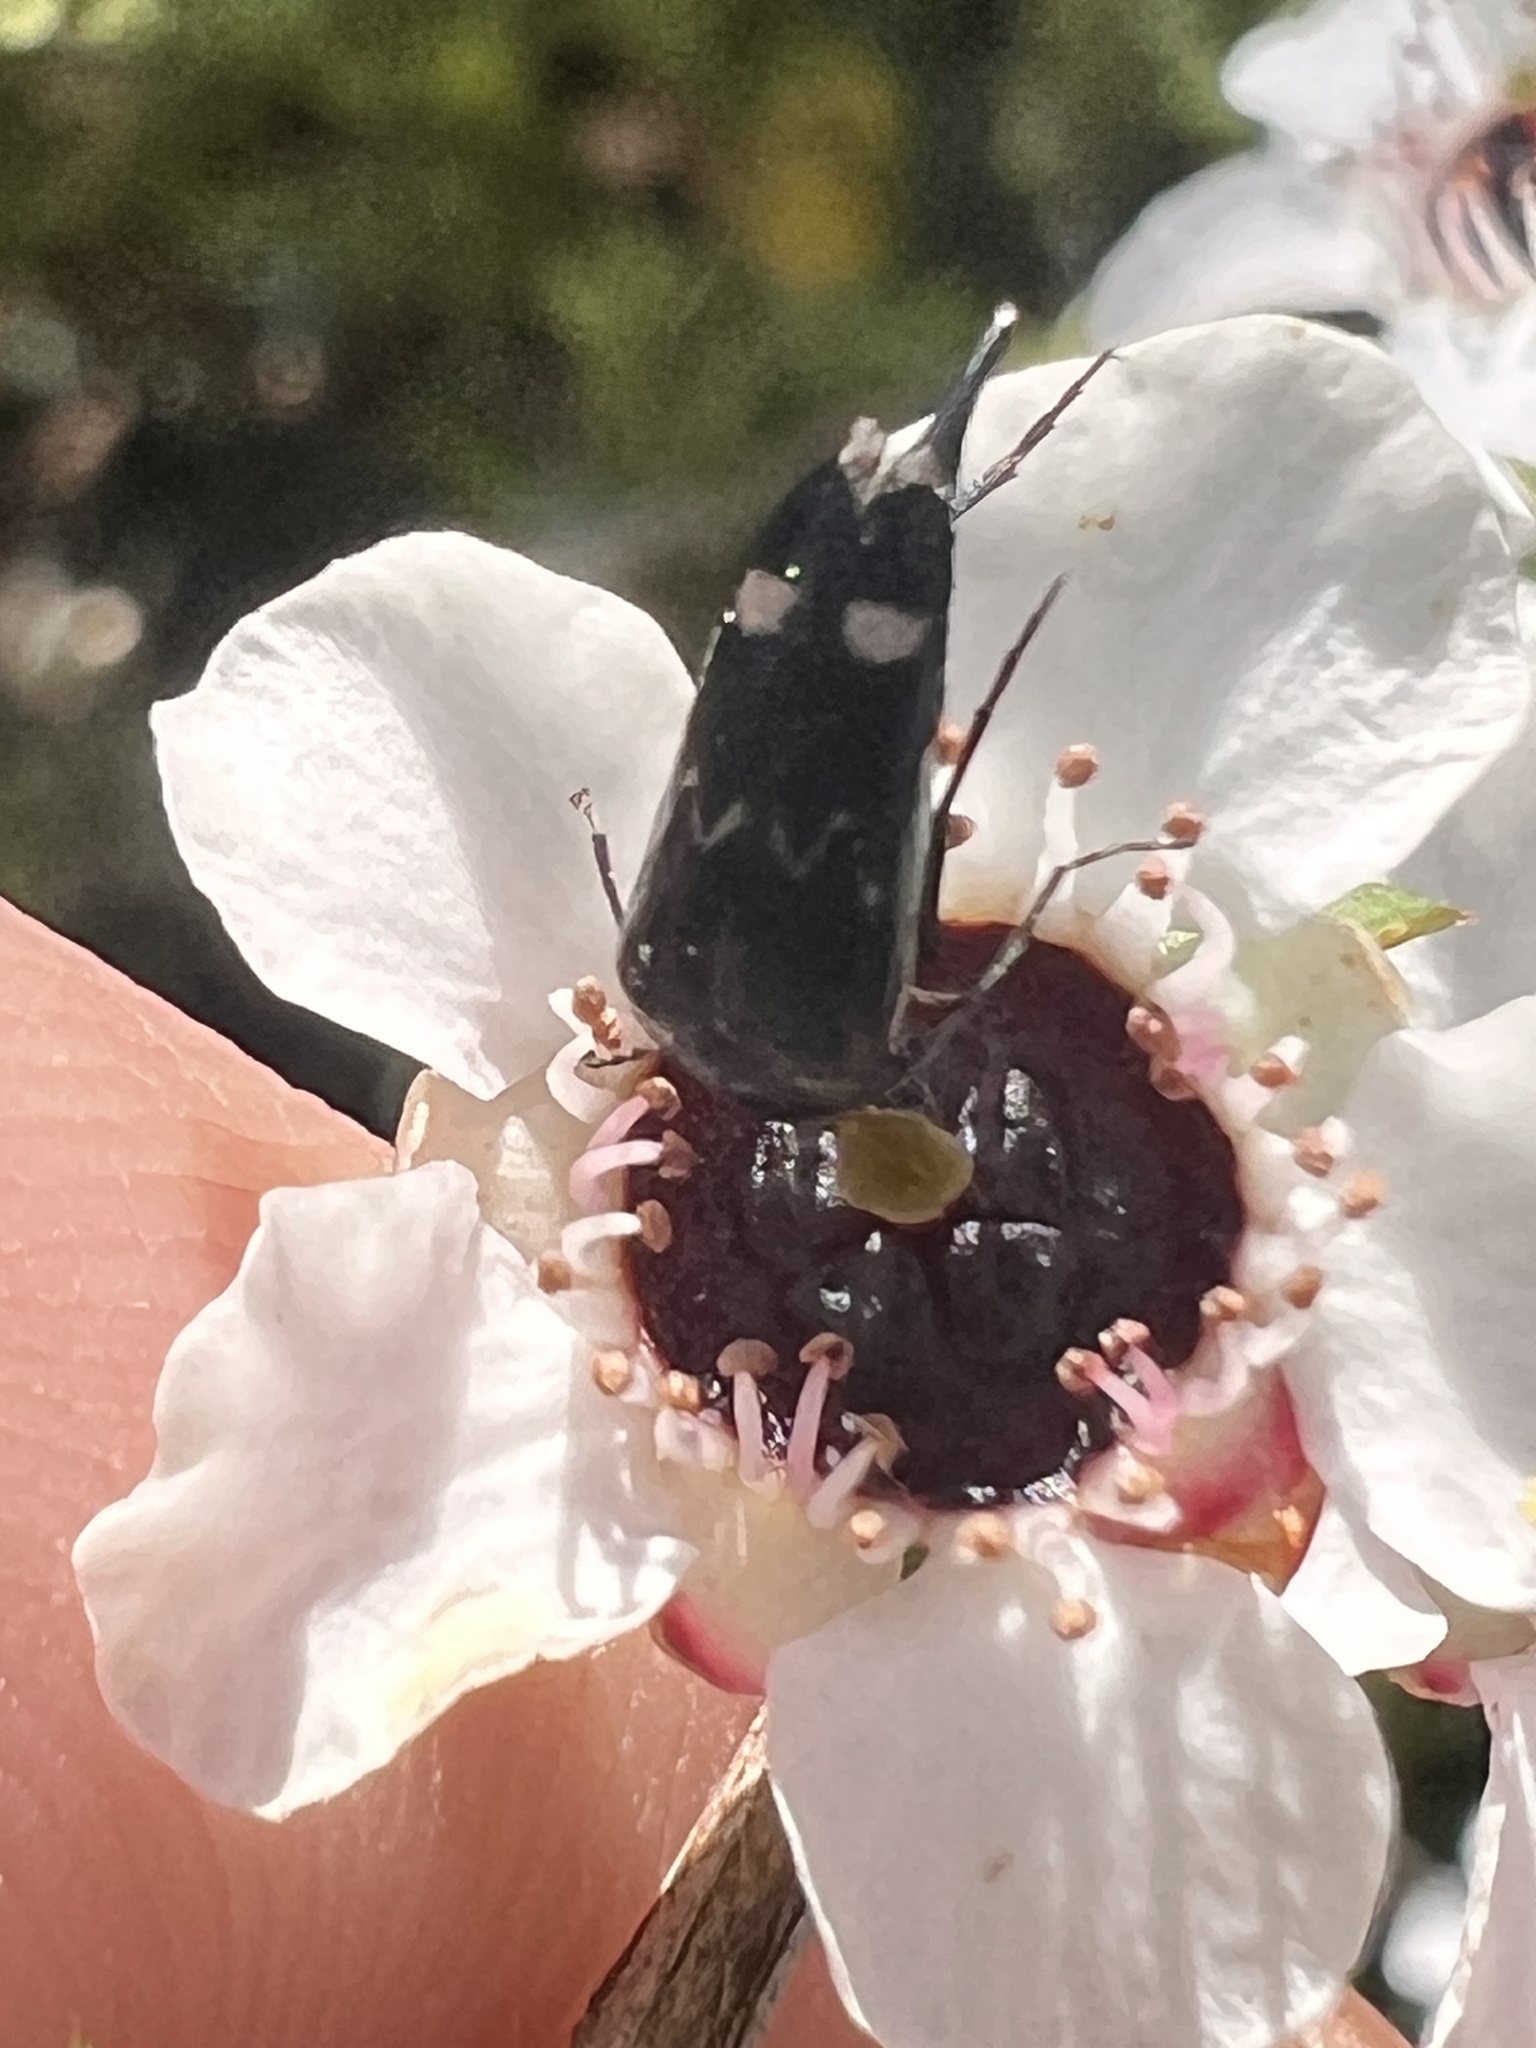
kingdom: Animalia
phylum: Arthropoda
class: Insecta
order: Coleoptera
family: Mordellidae
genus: Mordella
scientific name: Mordella
